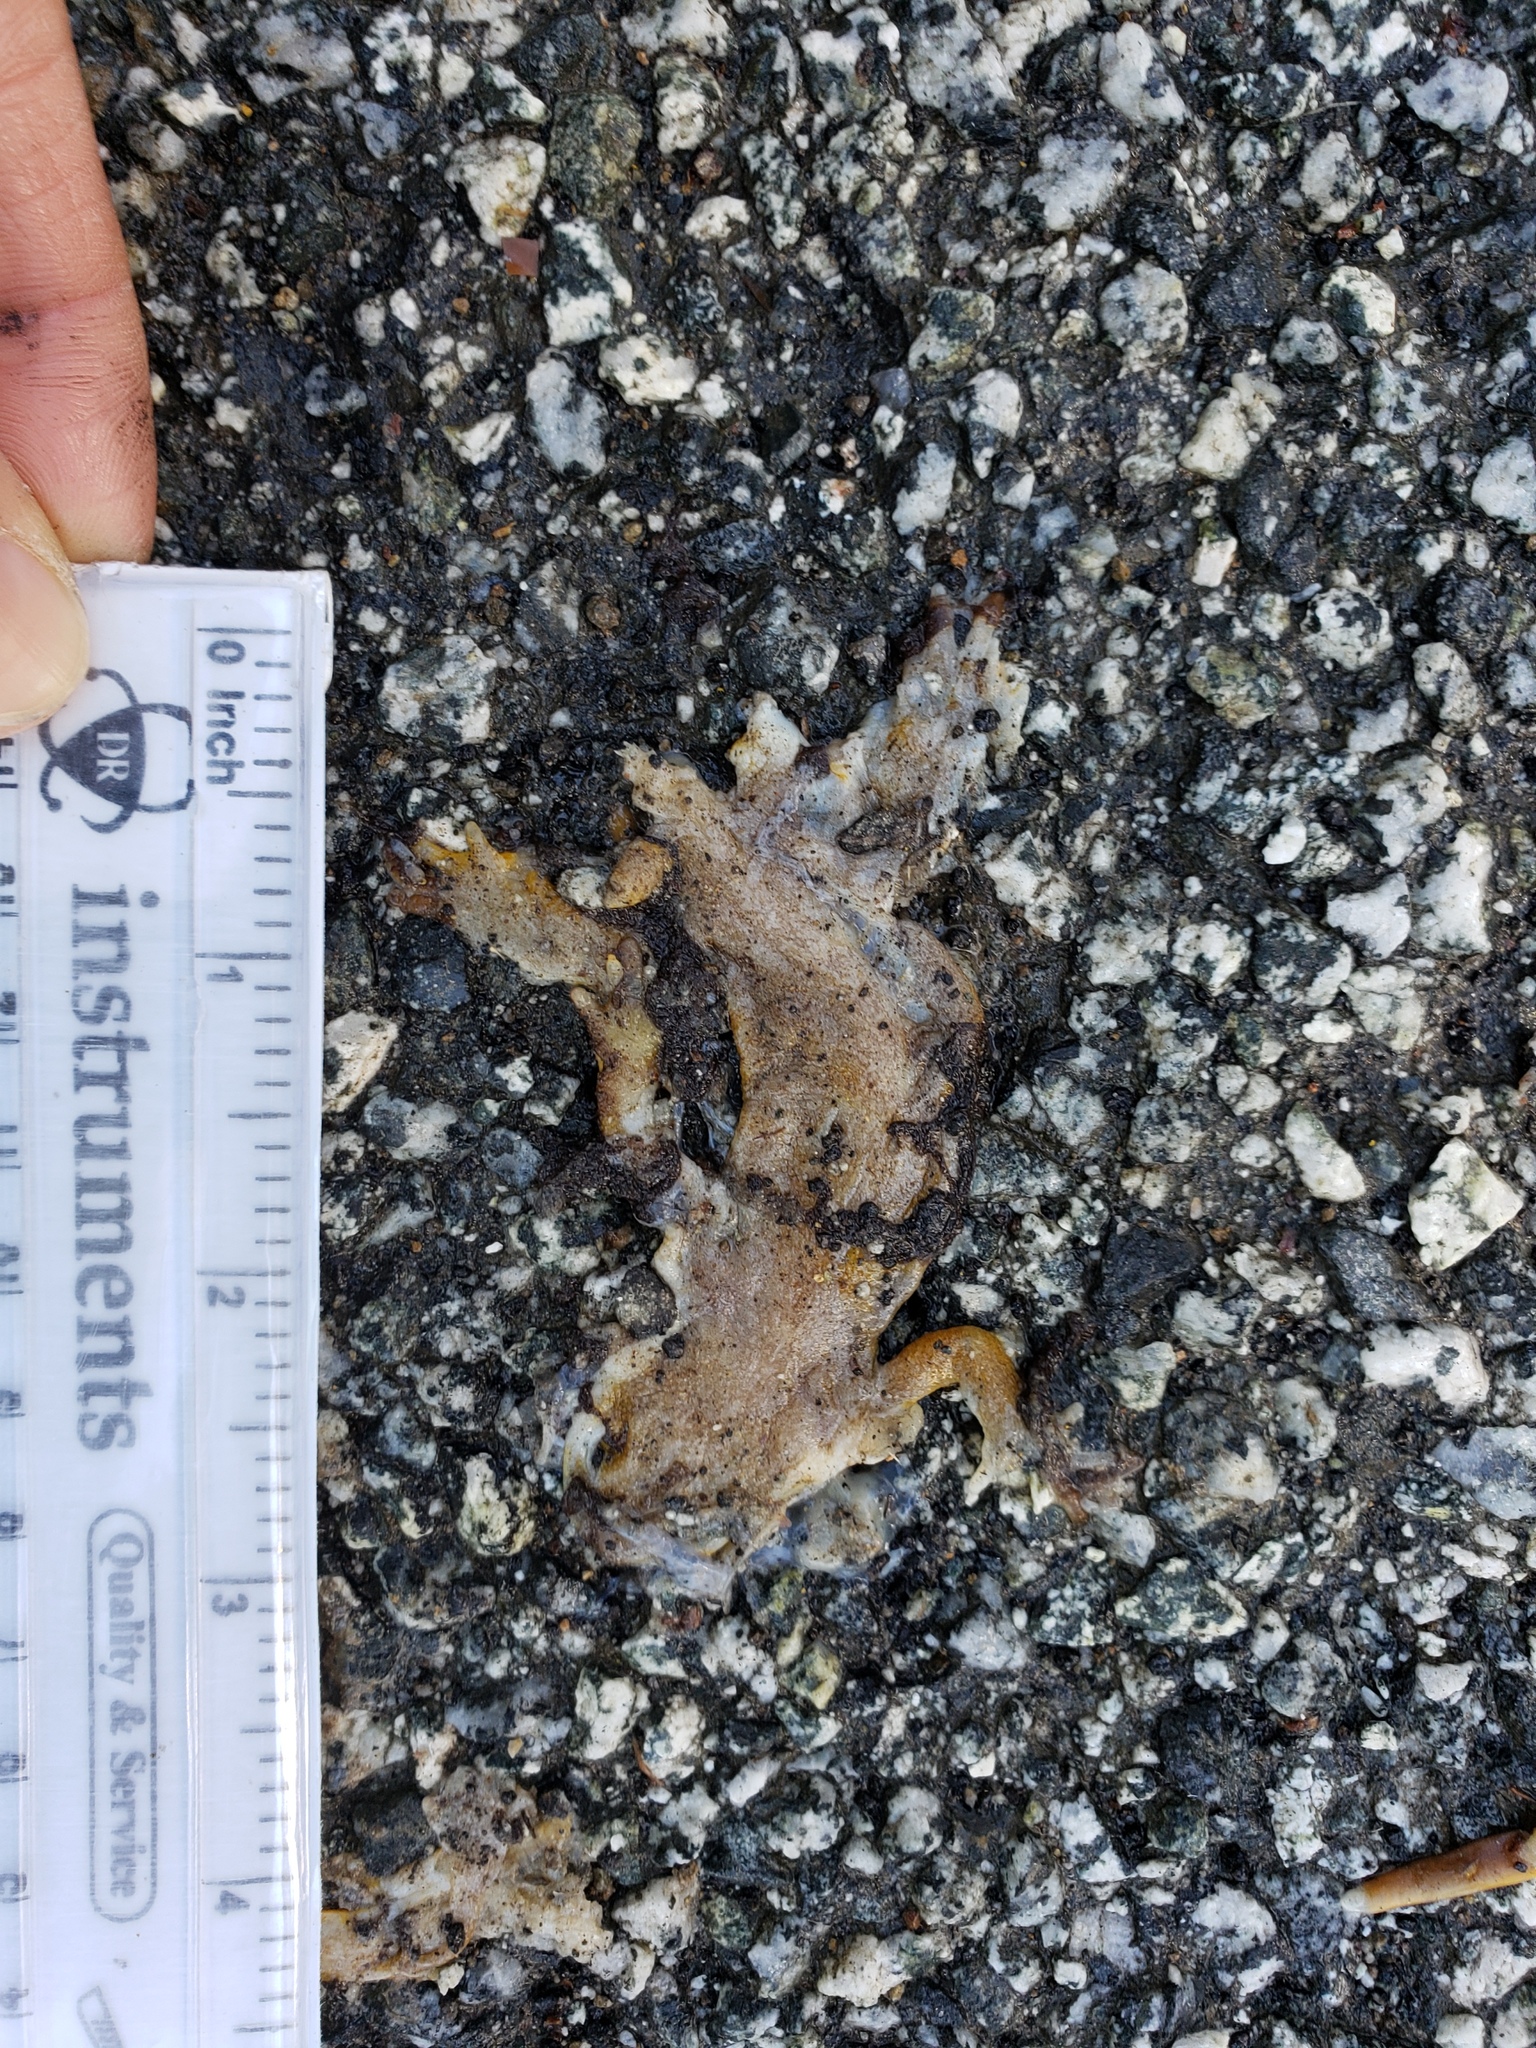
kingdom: Animalia
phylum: Chordata
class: Amphibia
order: Caudata
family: Salamandridae
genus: Taricha
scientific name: Taricha
